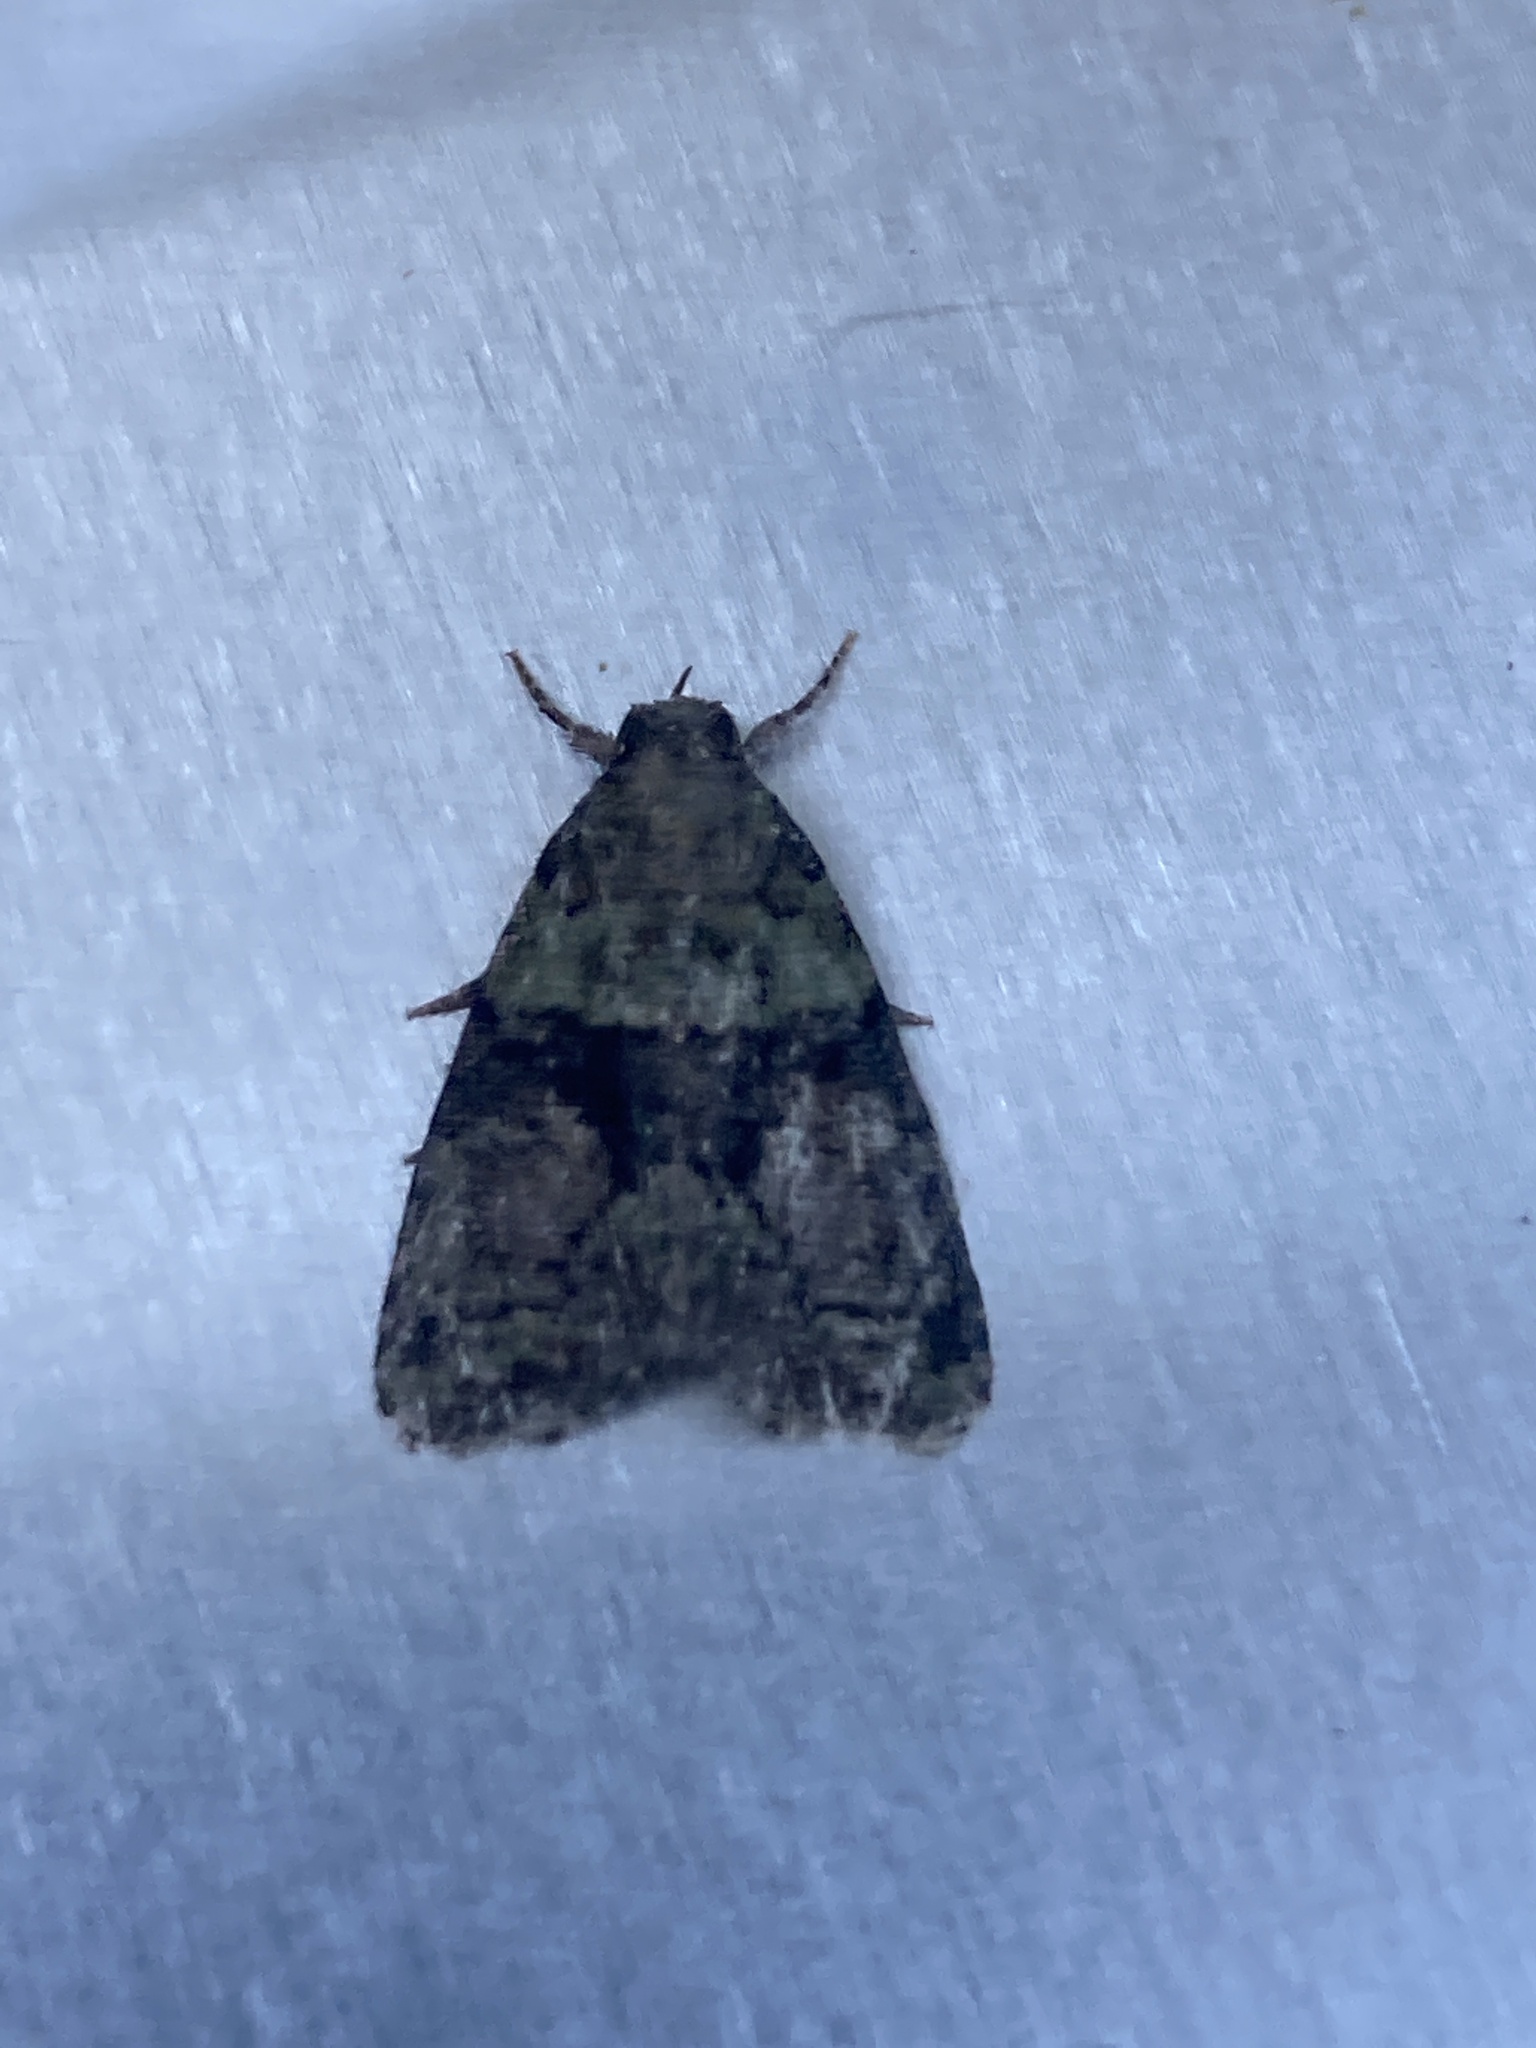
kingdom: Animalia
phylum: Arthropoda
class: Insecta
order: Lepidoptera
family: Noctuidae
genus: Cryphia
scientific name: Cryphia algae
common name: Tree-lichen beauty
